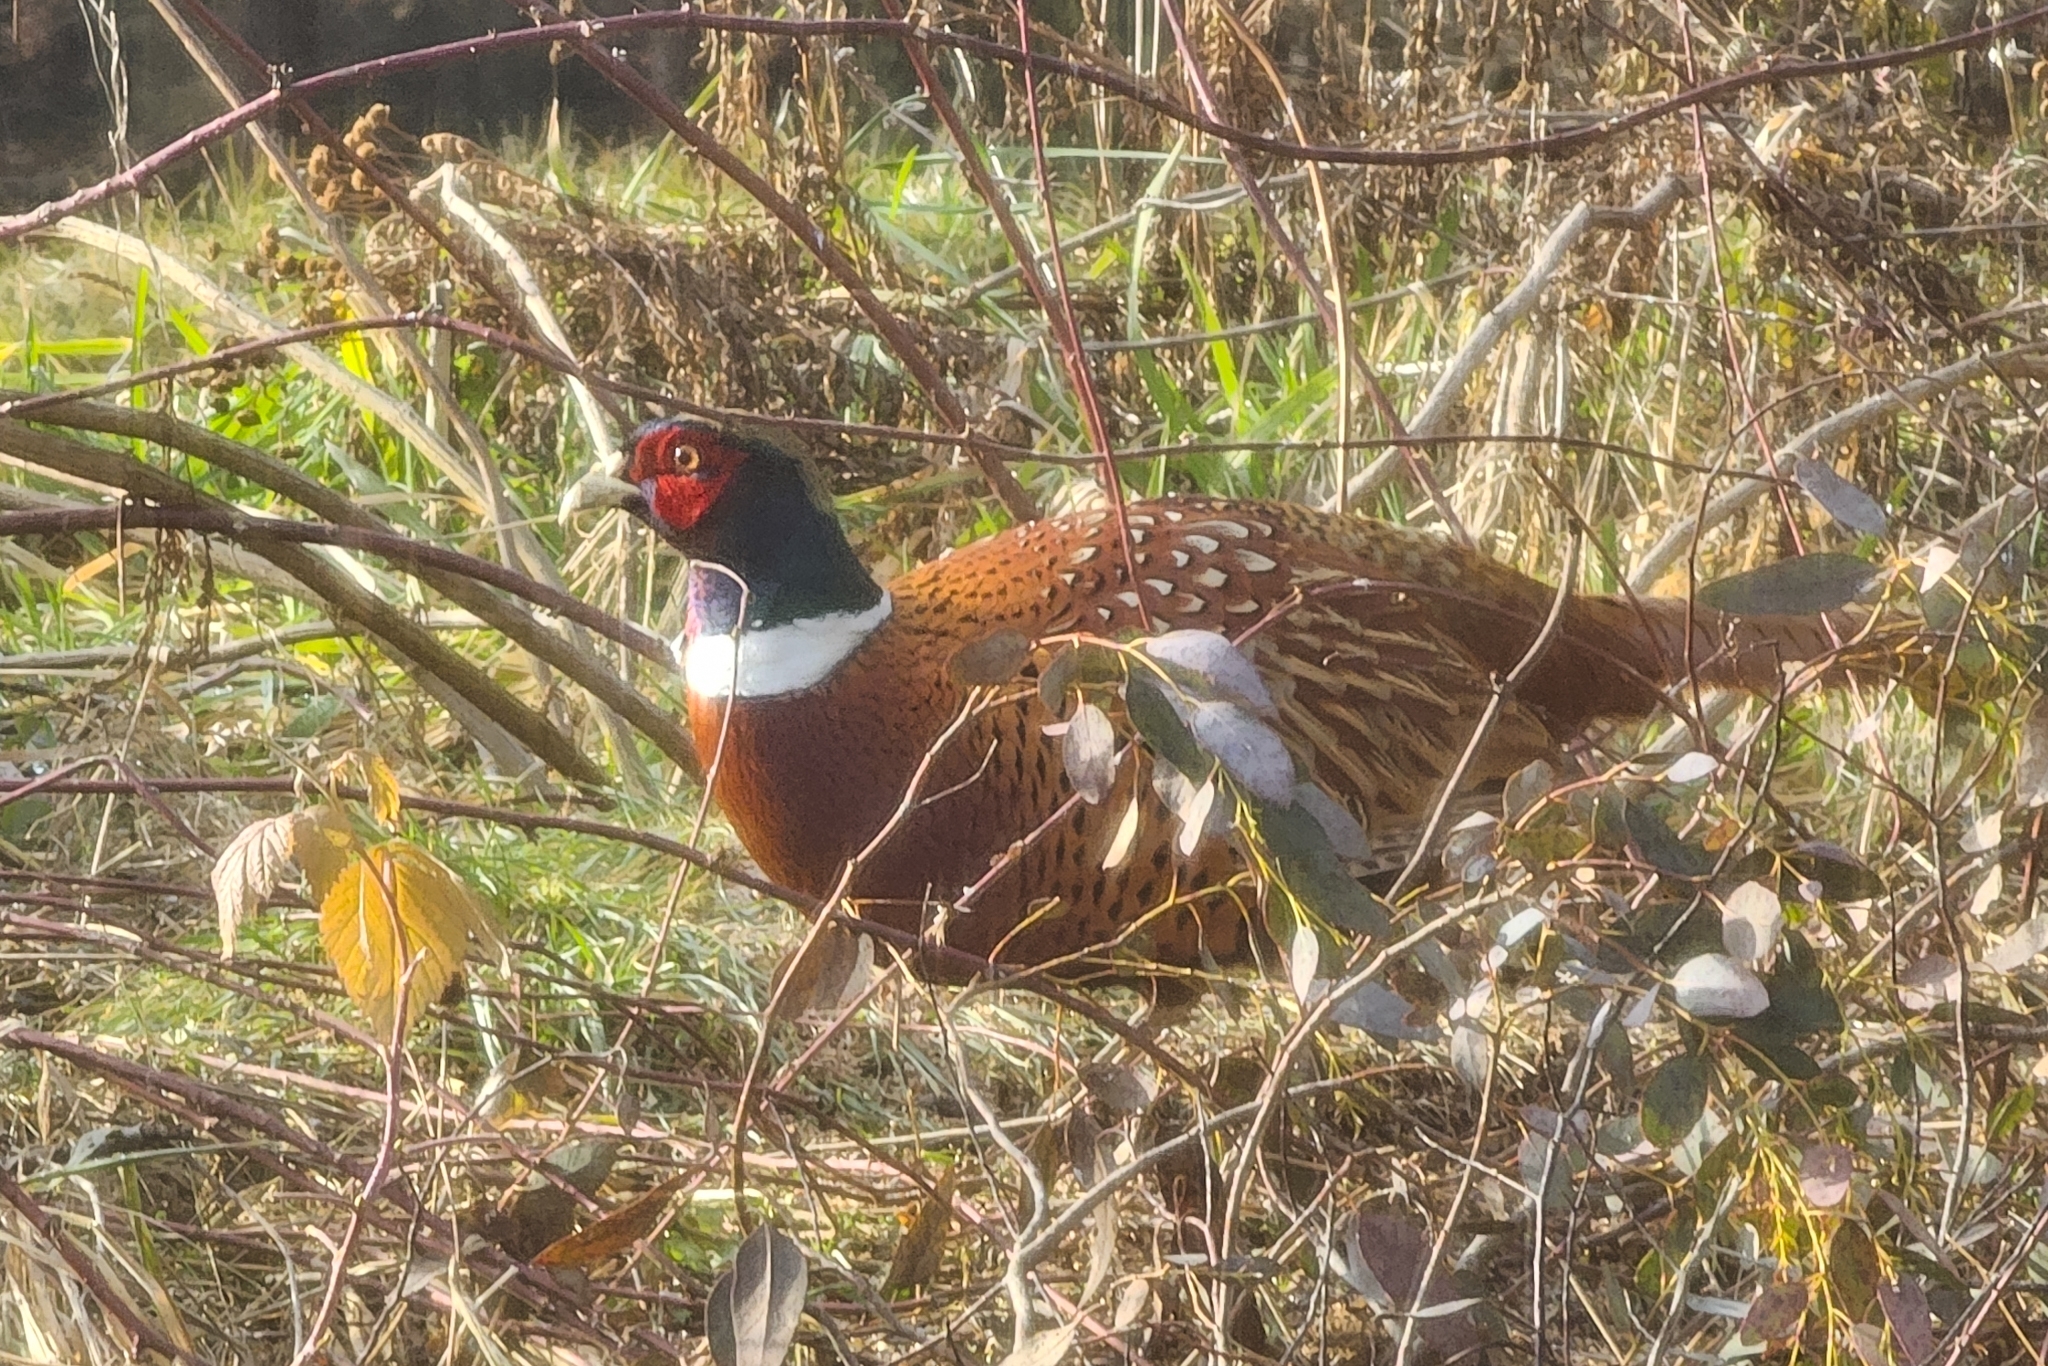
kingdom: Animalia
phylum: Chordata
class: Aves
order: Galliformes
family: Phasianidae
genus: Phasianus
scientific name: Phasianus colchicus
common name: Common pheasant
